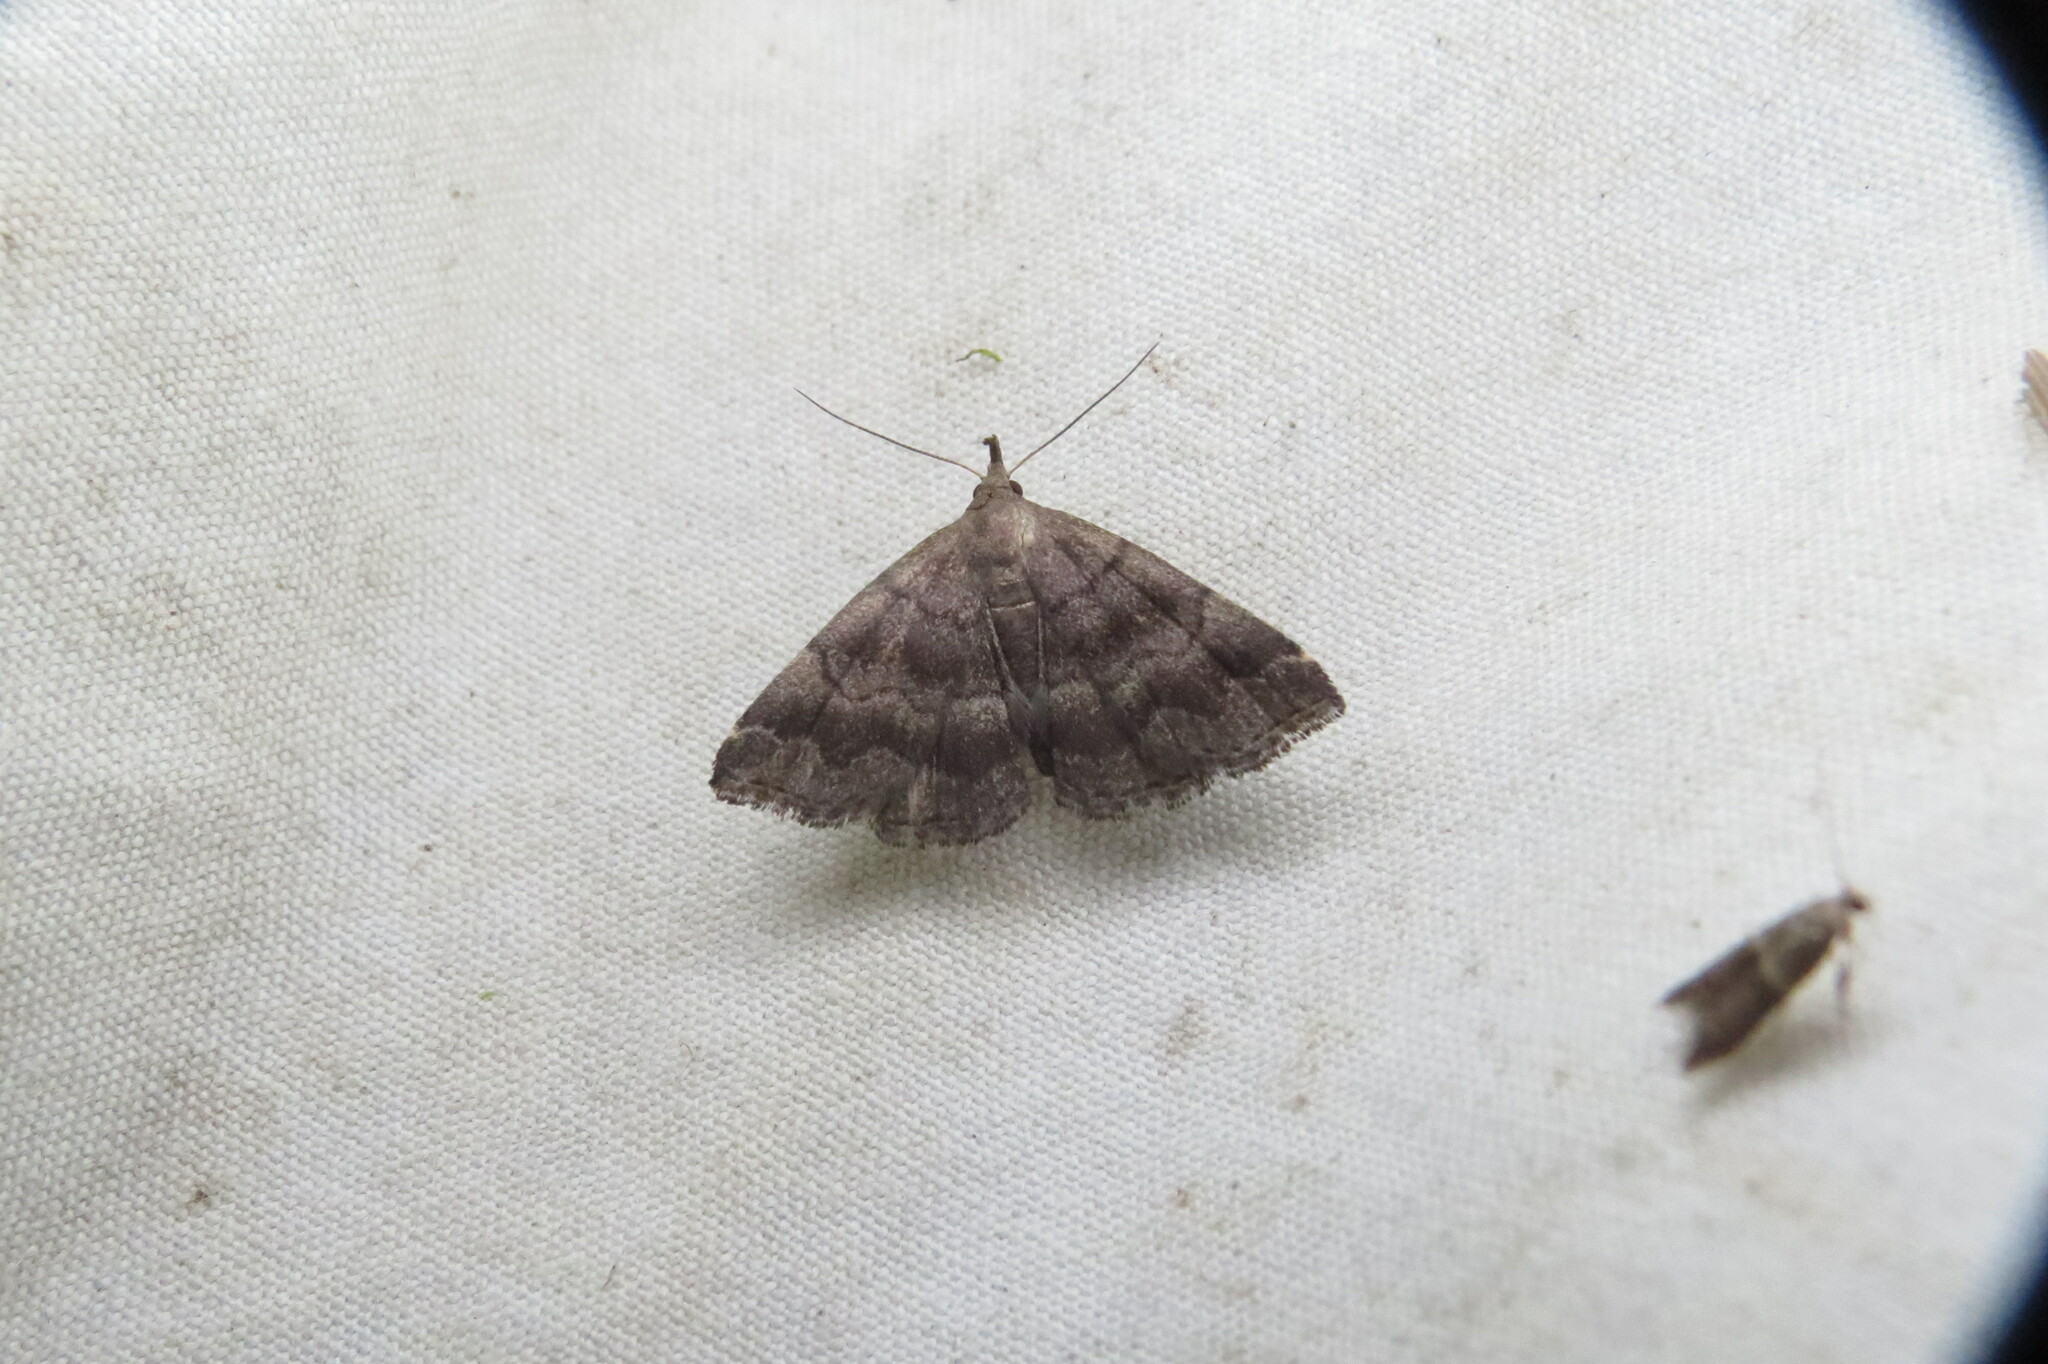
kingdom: Animalia
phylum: Arthropoda
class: Insecta
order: Lepidoptera
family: Erebidae
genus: Phalaenostola
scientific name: Phalaenostola larentioides
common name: Black-banded owlet
